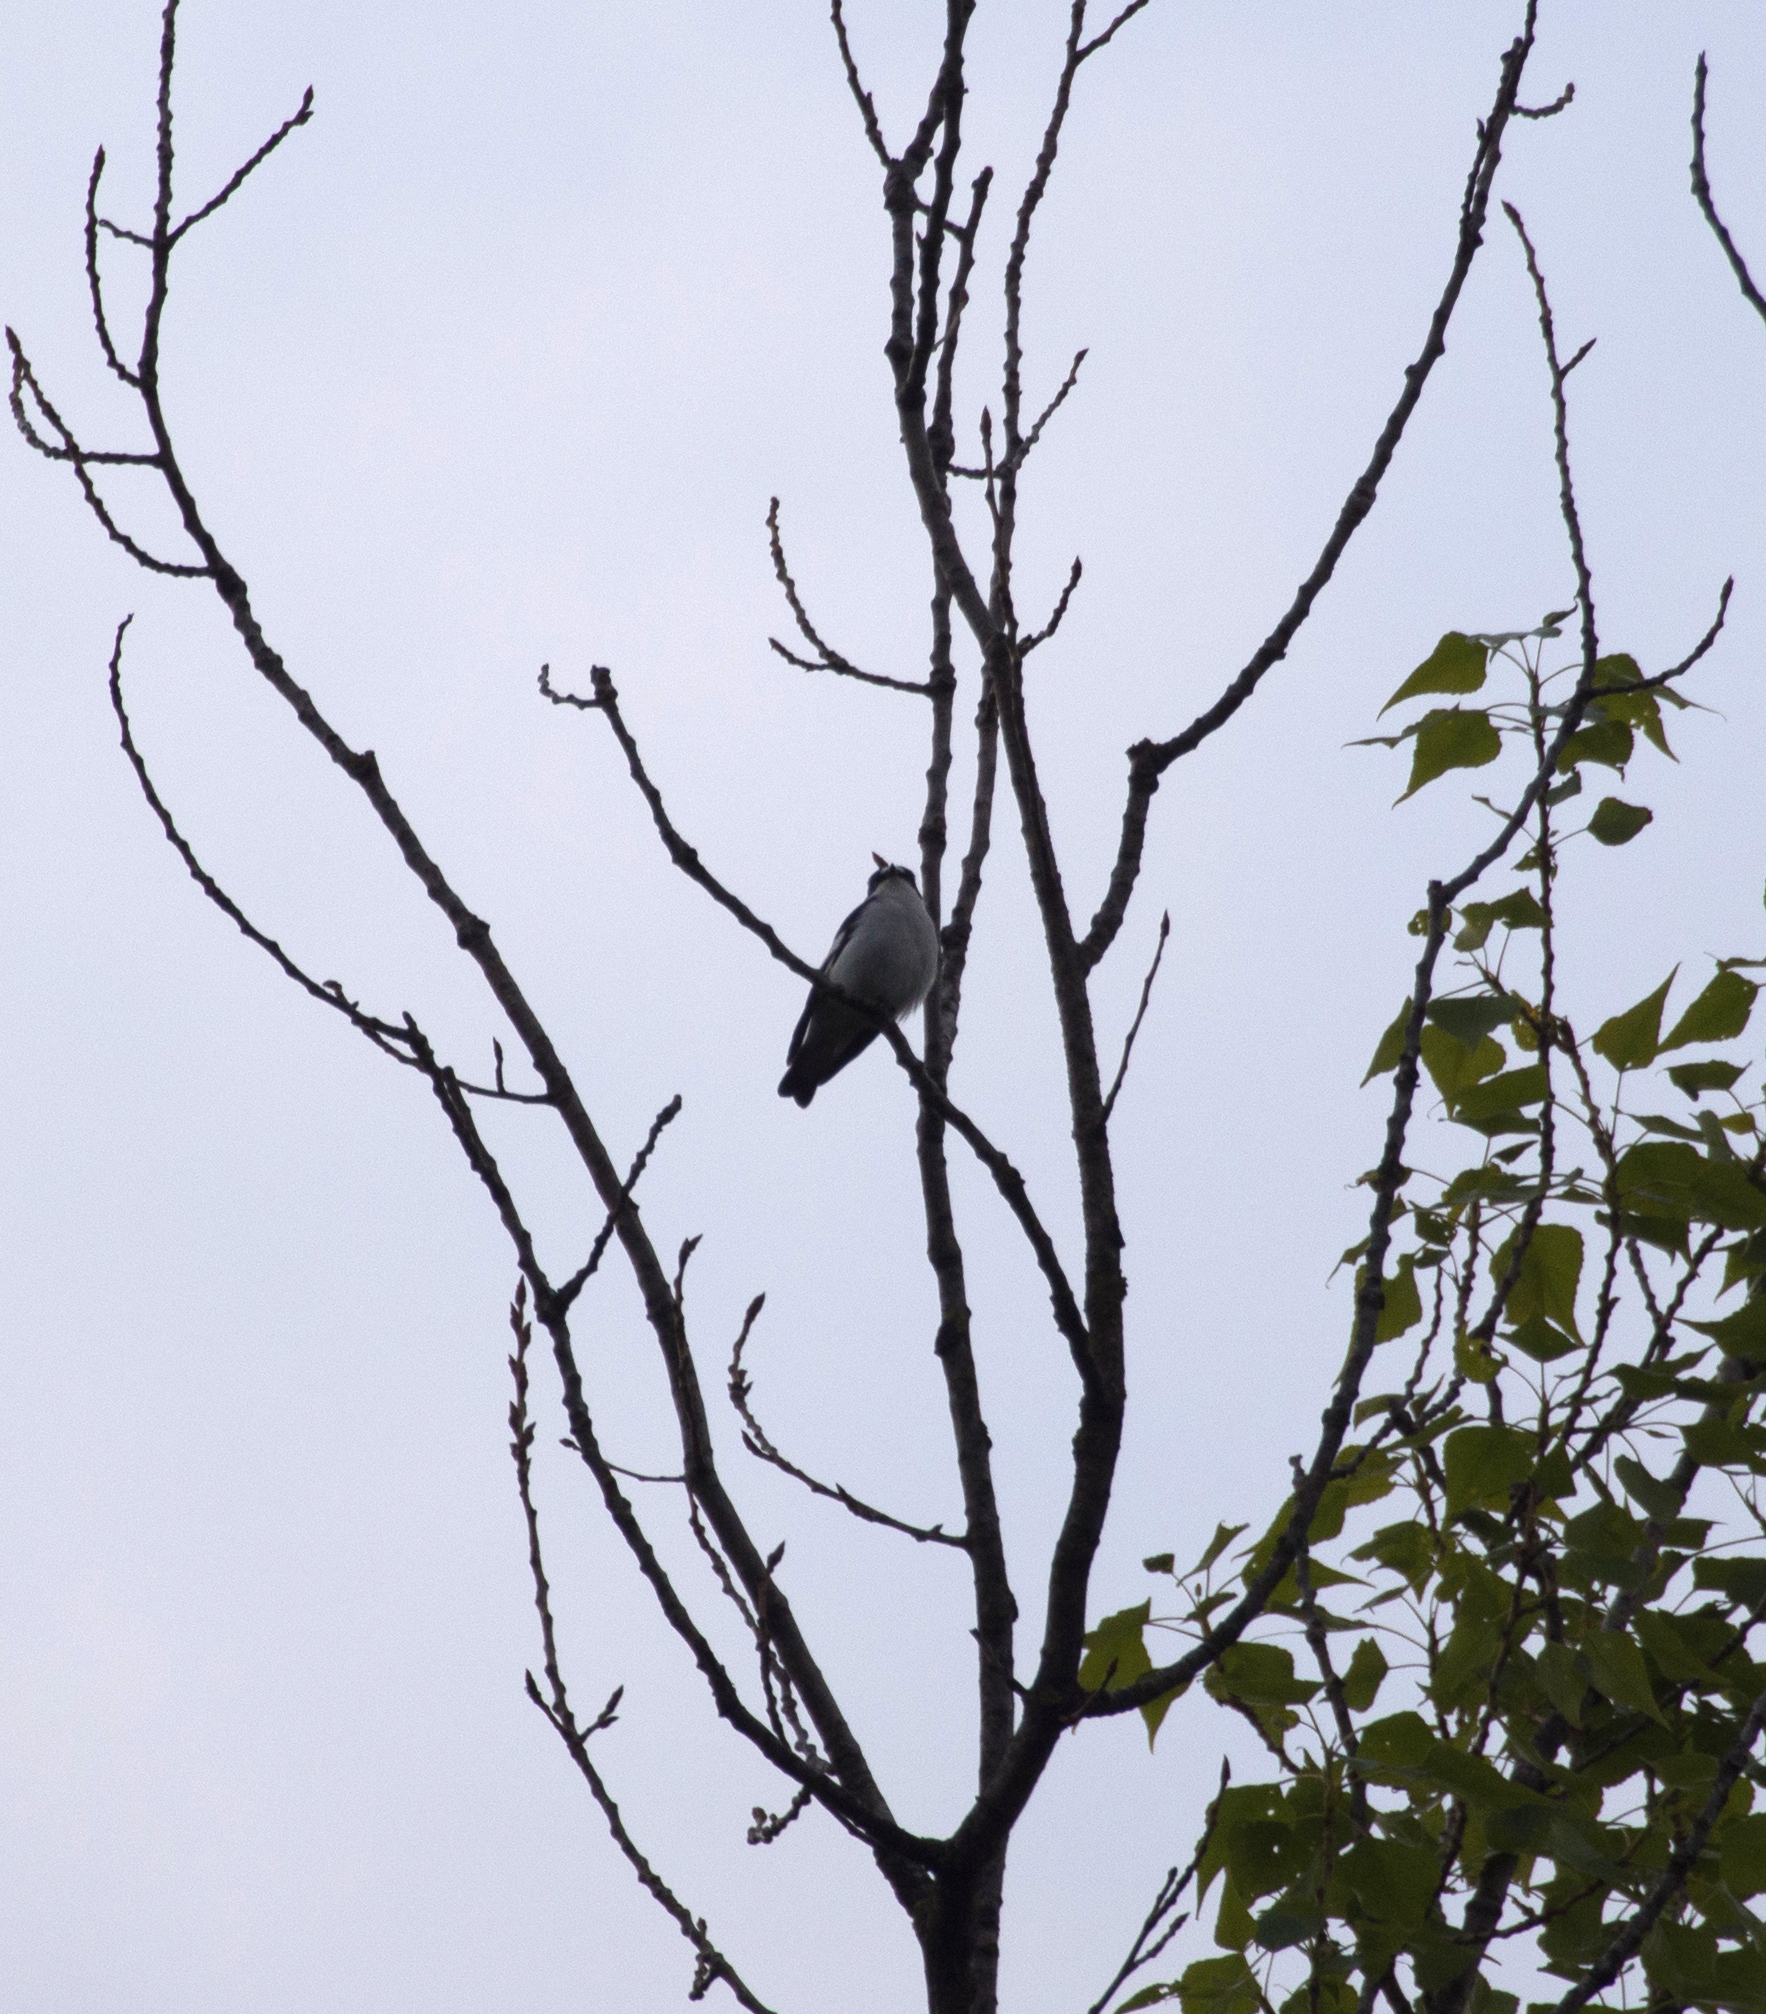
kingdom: Animalia
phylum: Chordata
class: Aves
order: Passeriformes
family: Muscicapidae
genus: Ficedula
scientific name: Ficedula albicollis
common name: Collared flycatcher
